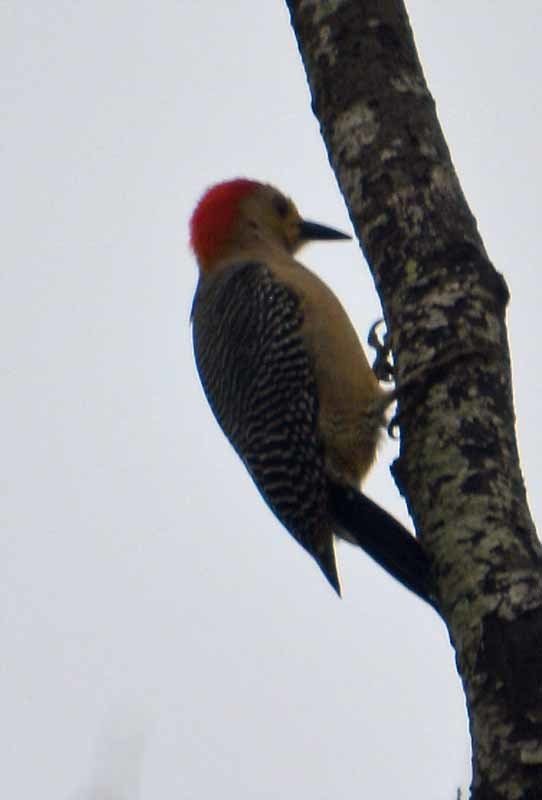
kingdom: Animalia
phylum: Chordata
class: Aves
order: Piciformes
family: Picidae
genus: Melanerpes
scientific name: Melanerpes aurifrons
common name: Golden-fronted woodpecker
